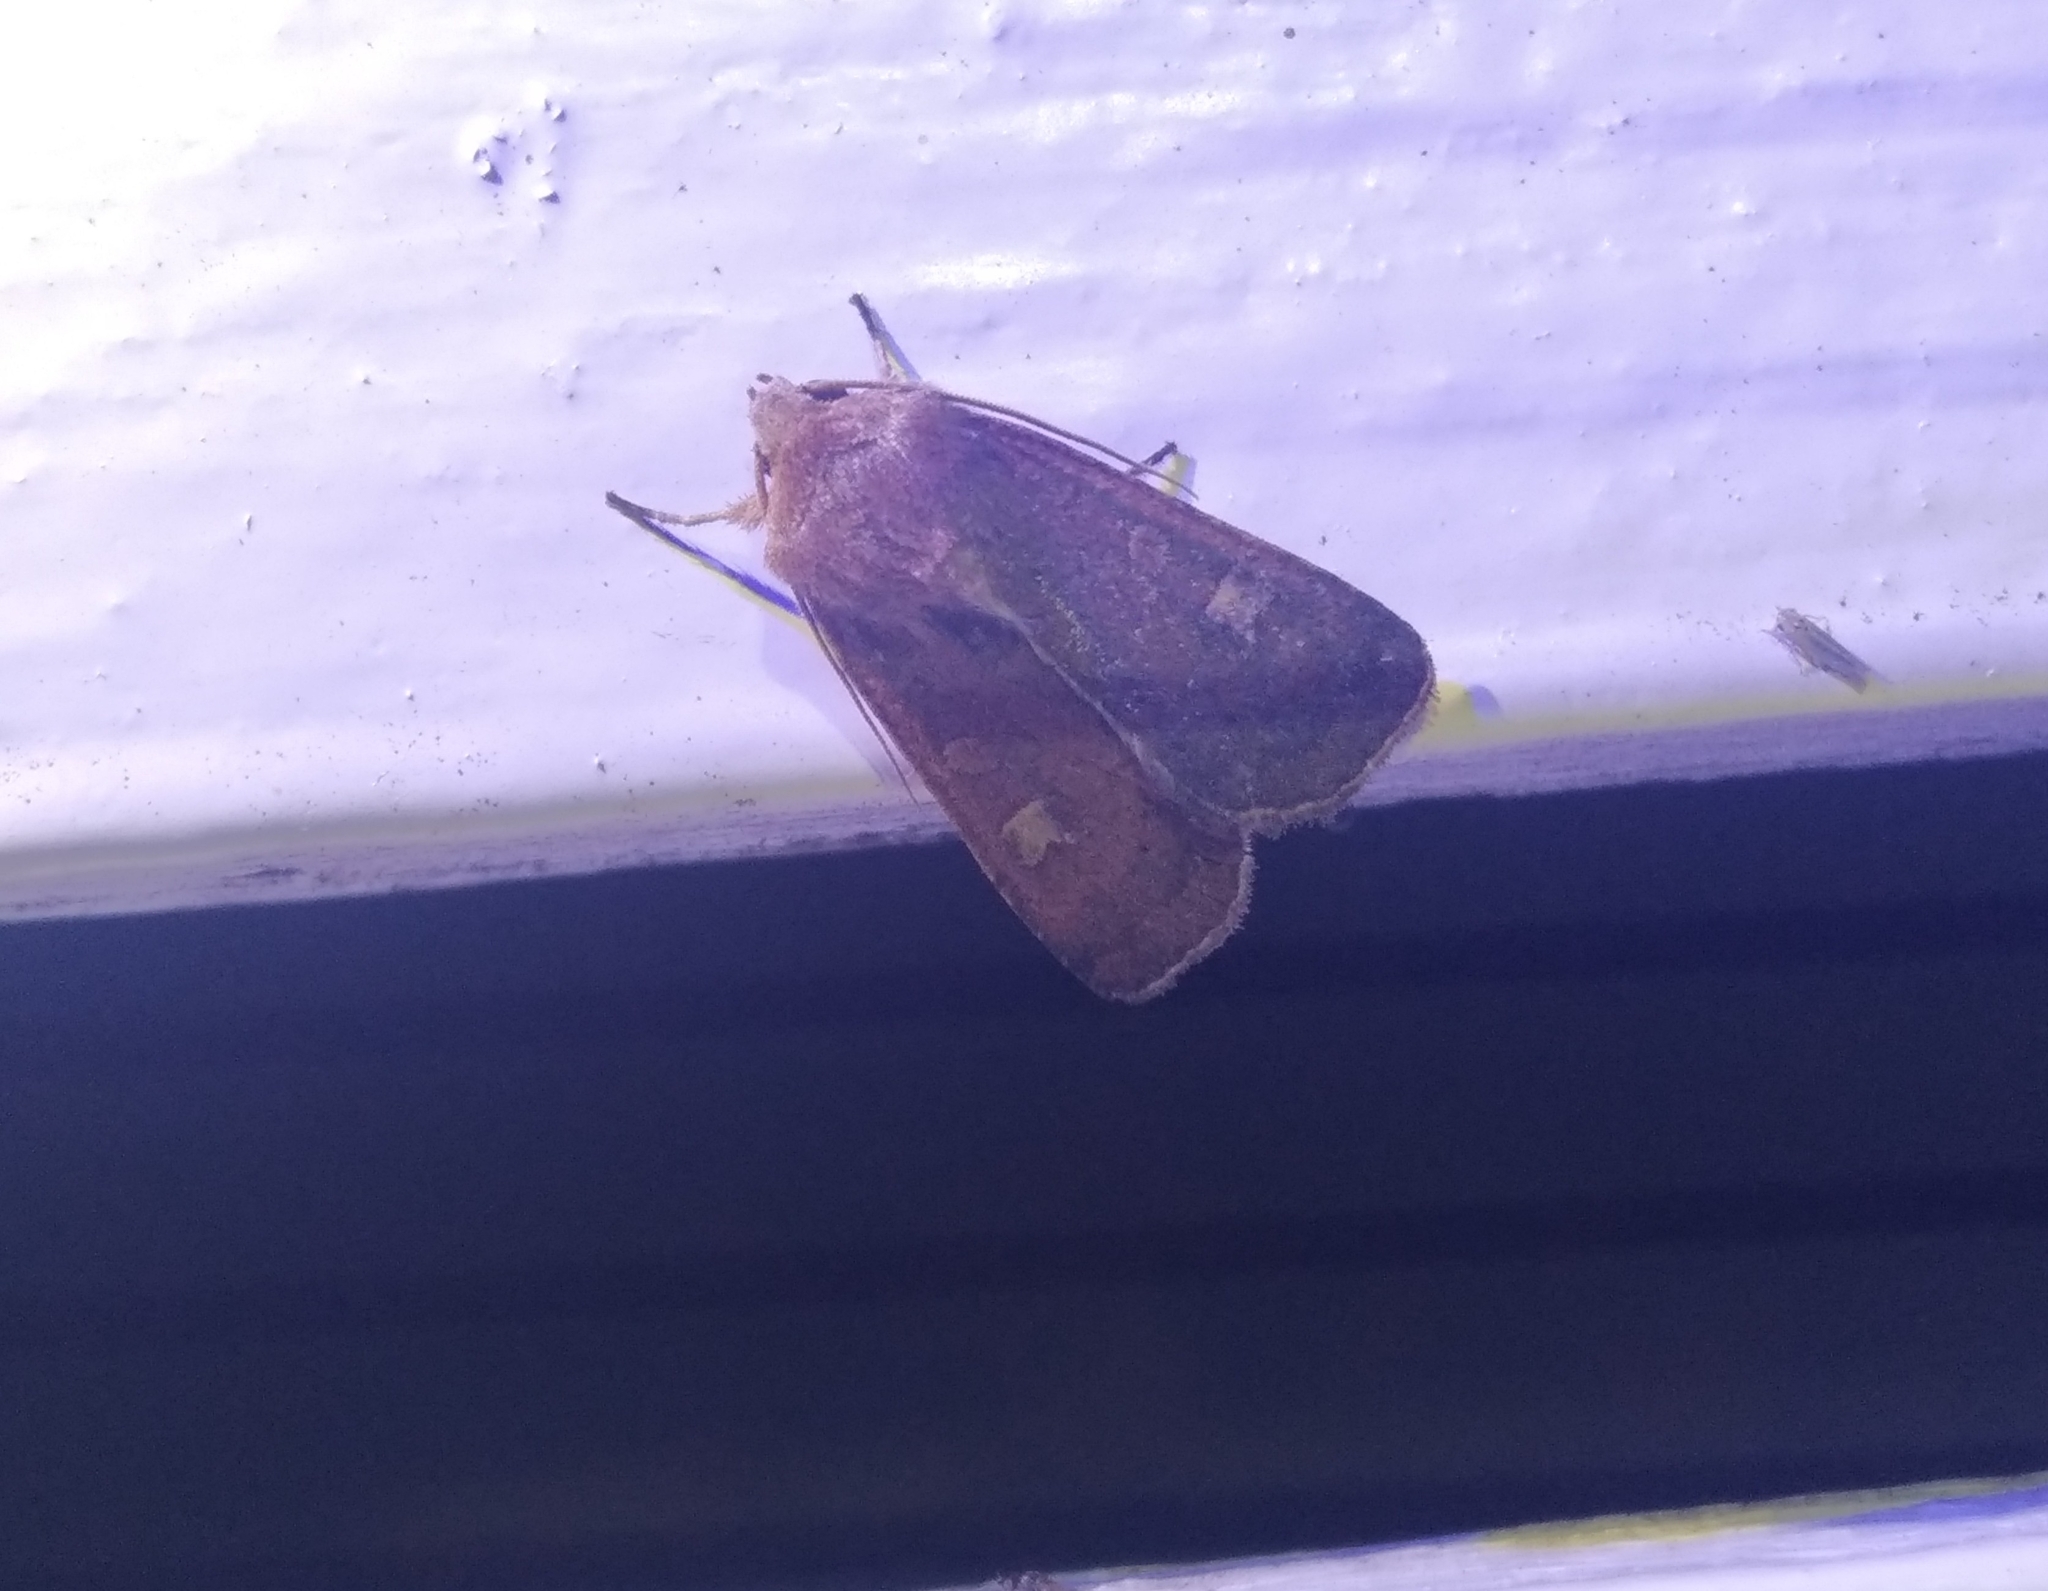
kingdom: Animalia
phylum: Arthropoda
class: Insecta
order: Lepidoptera
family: Noctuidae
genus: Xestia
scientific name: Xestia xanthographa
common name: Square-spot rustic
